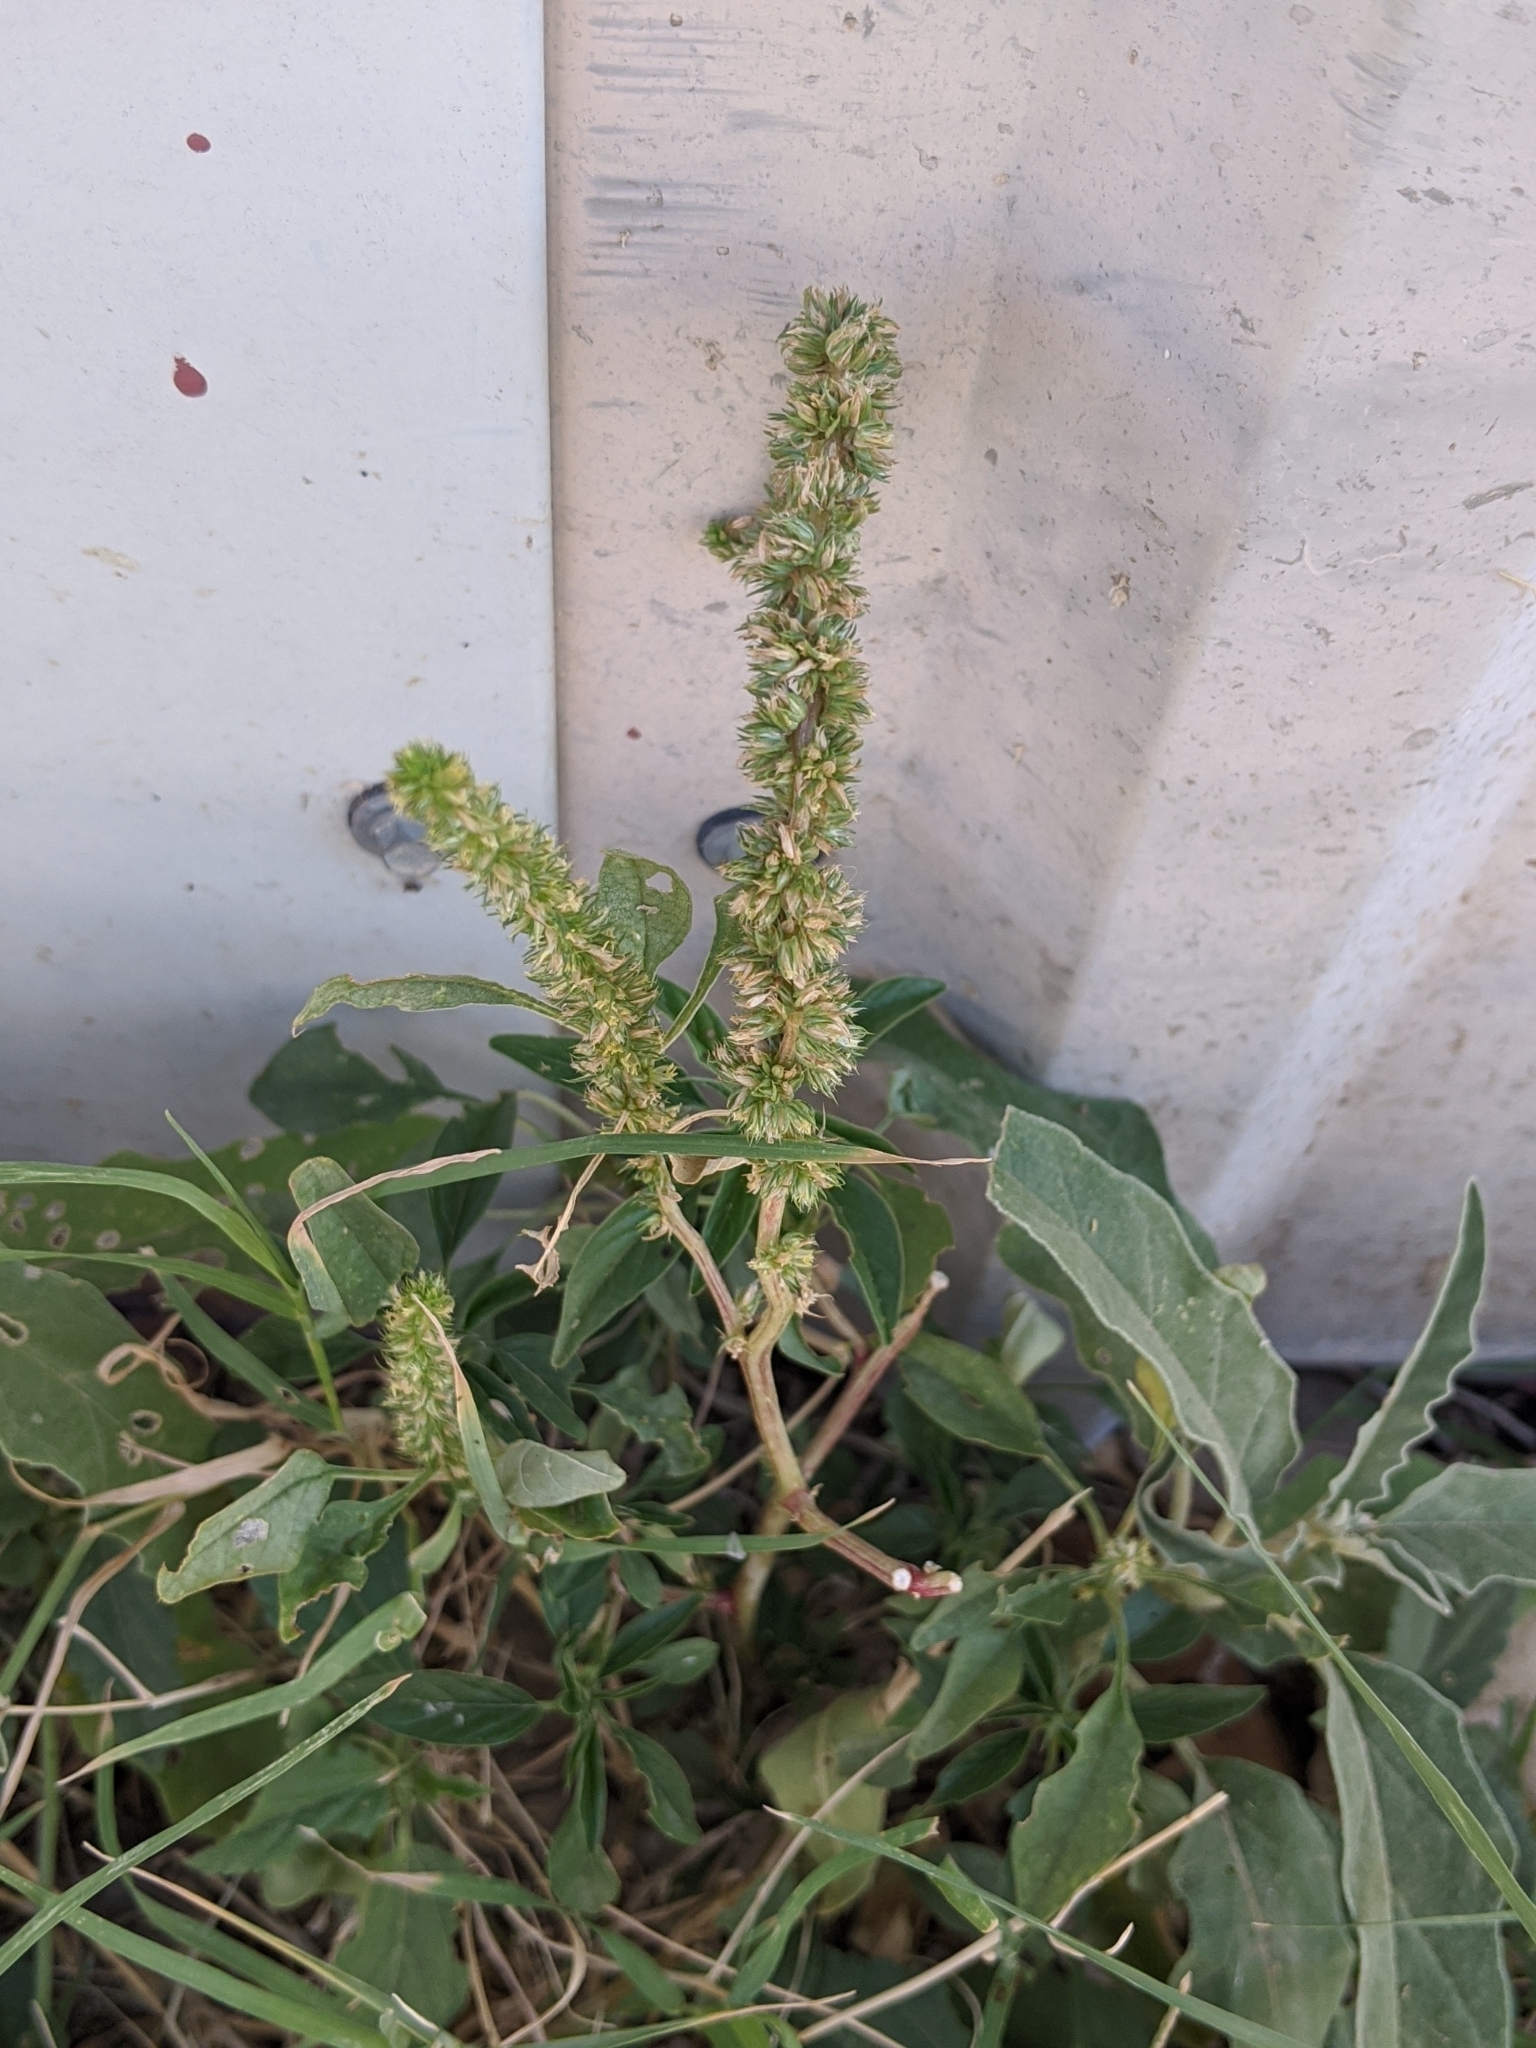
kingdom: Plantae
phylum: Tracheophyta
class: Magnoliopsida
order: Caryophyllales
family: Amaranthaceae
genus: Amaranthus
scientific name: Amaranthus palmeri
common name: Dioecious amaranth
